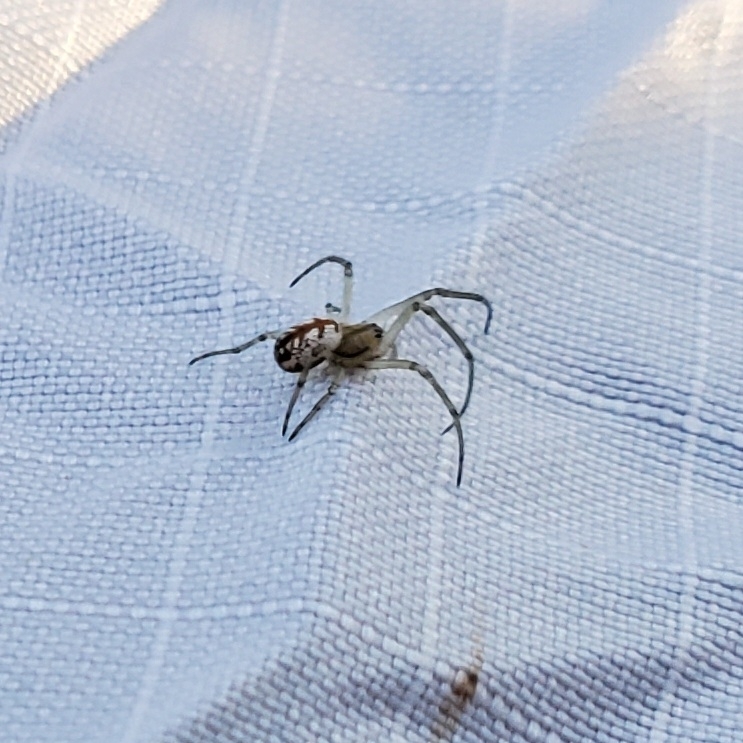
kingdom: Animalia
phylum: Arthropoda
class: Arachnida
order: Araneae
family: Tetragnathidae
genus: Leucauge
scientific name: Leucauge venusta
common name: Longjawed orb weavers
